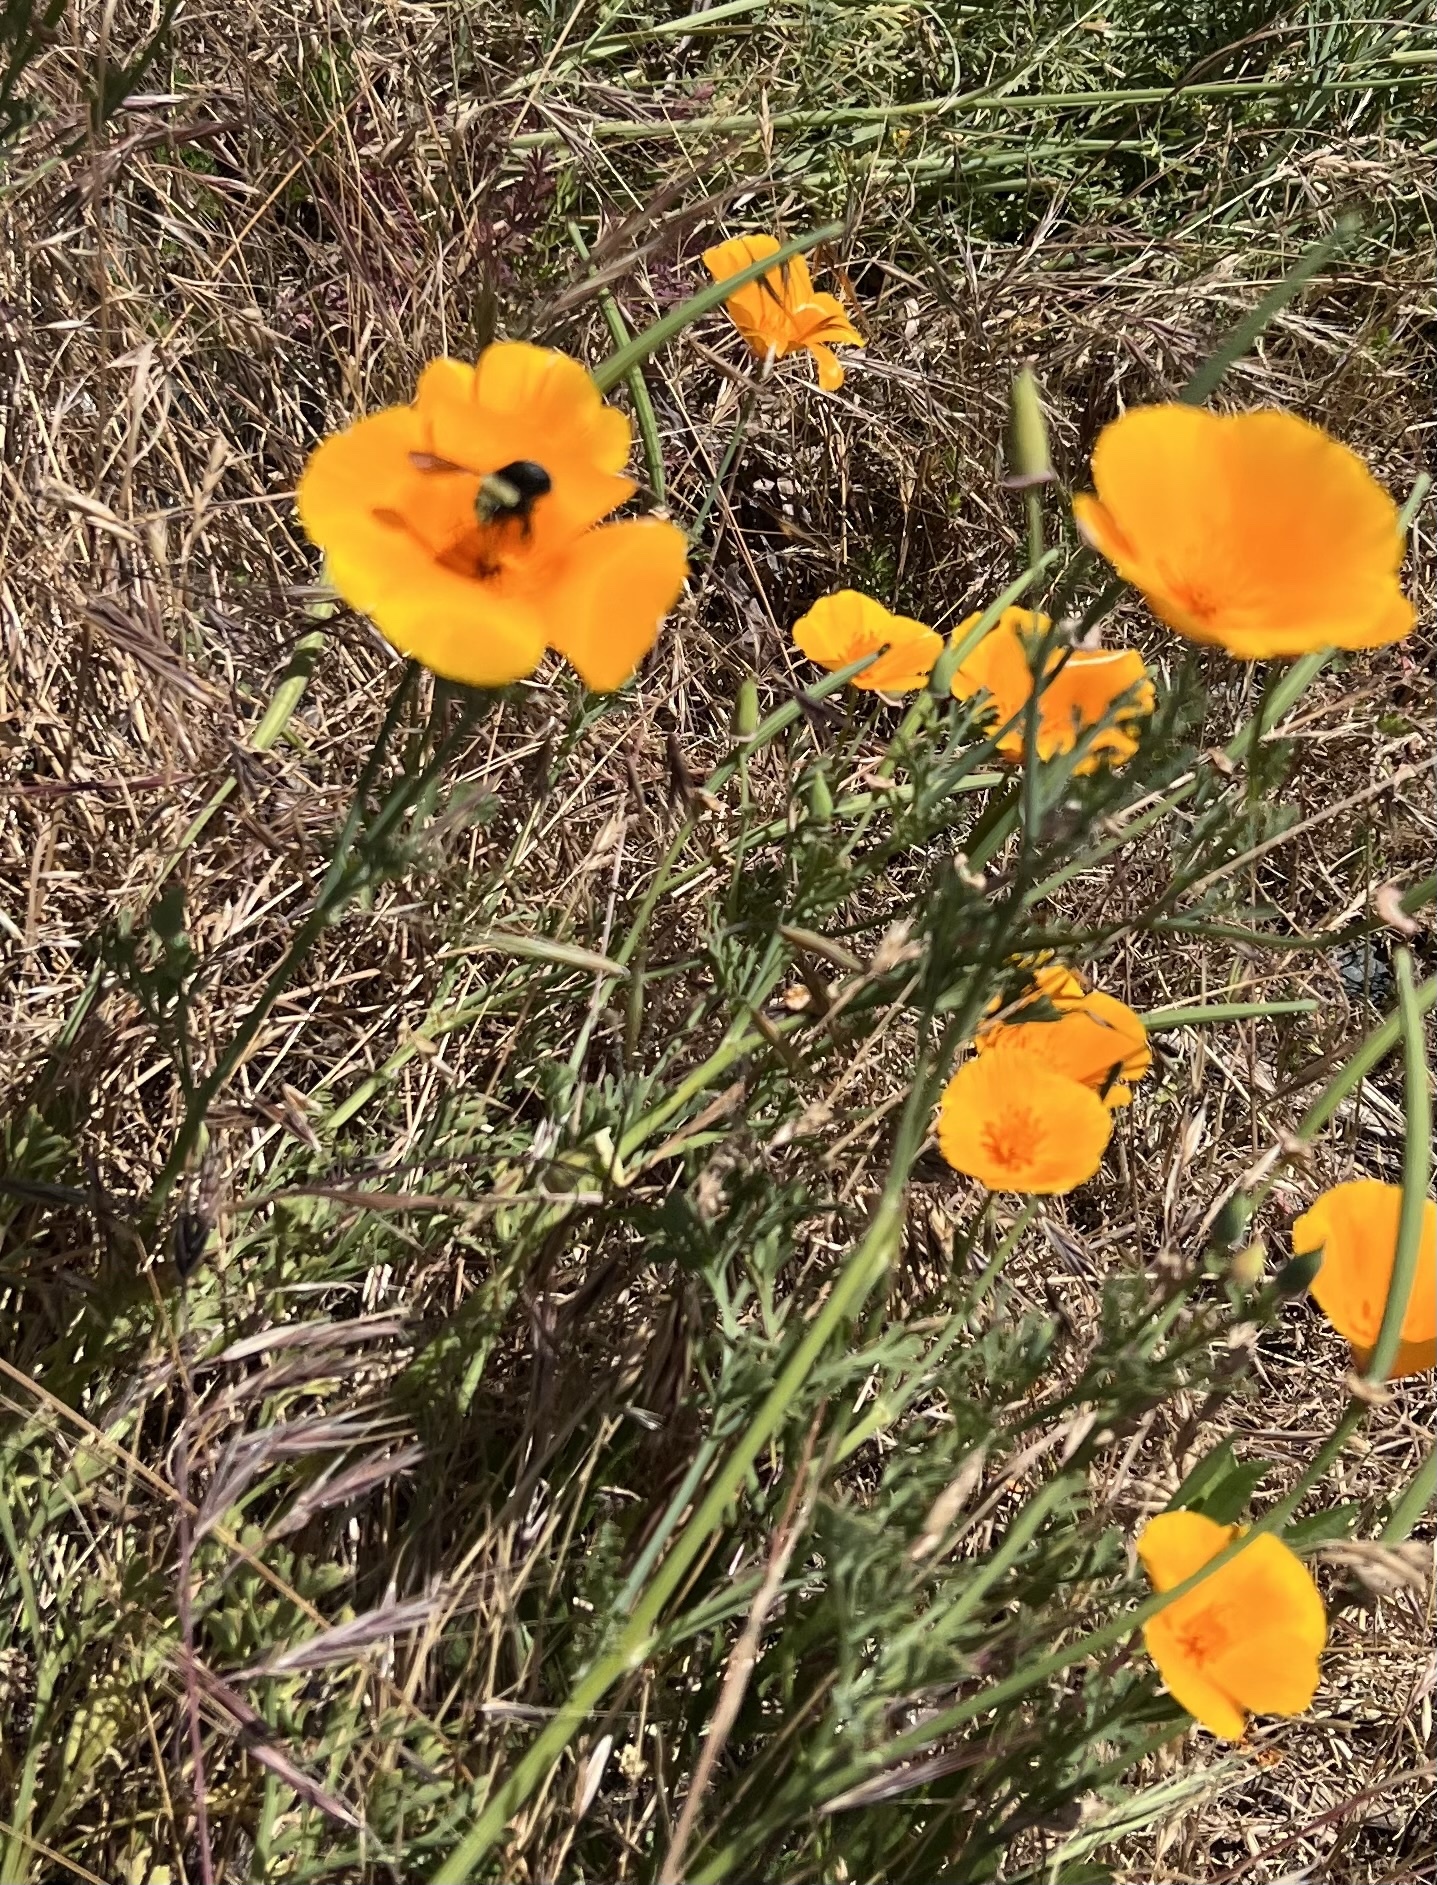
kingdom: Animalia
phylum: Arthropoda
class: Insecta
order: Hymenoptera
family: Apidae
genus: Bombus
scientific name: Bombus vosnesenskii
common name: Vosnesensky bumble bee
